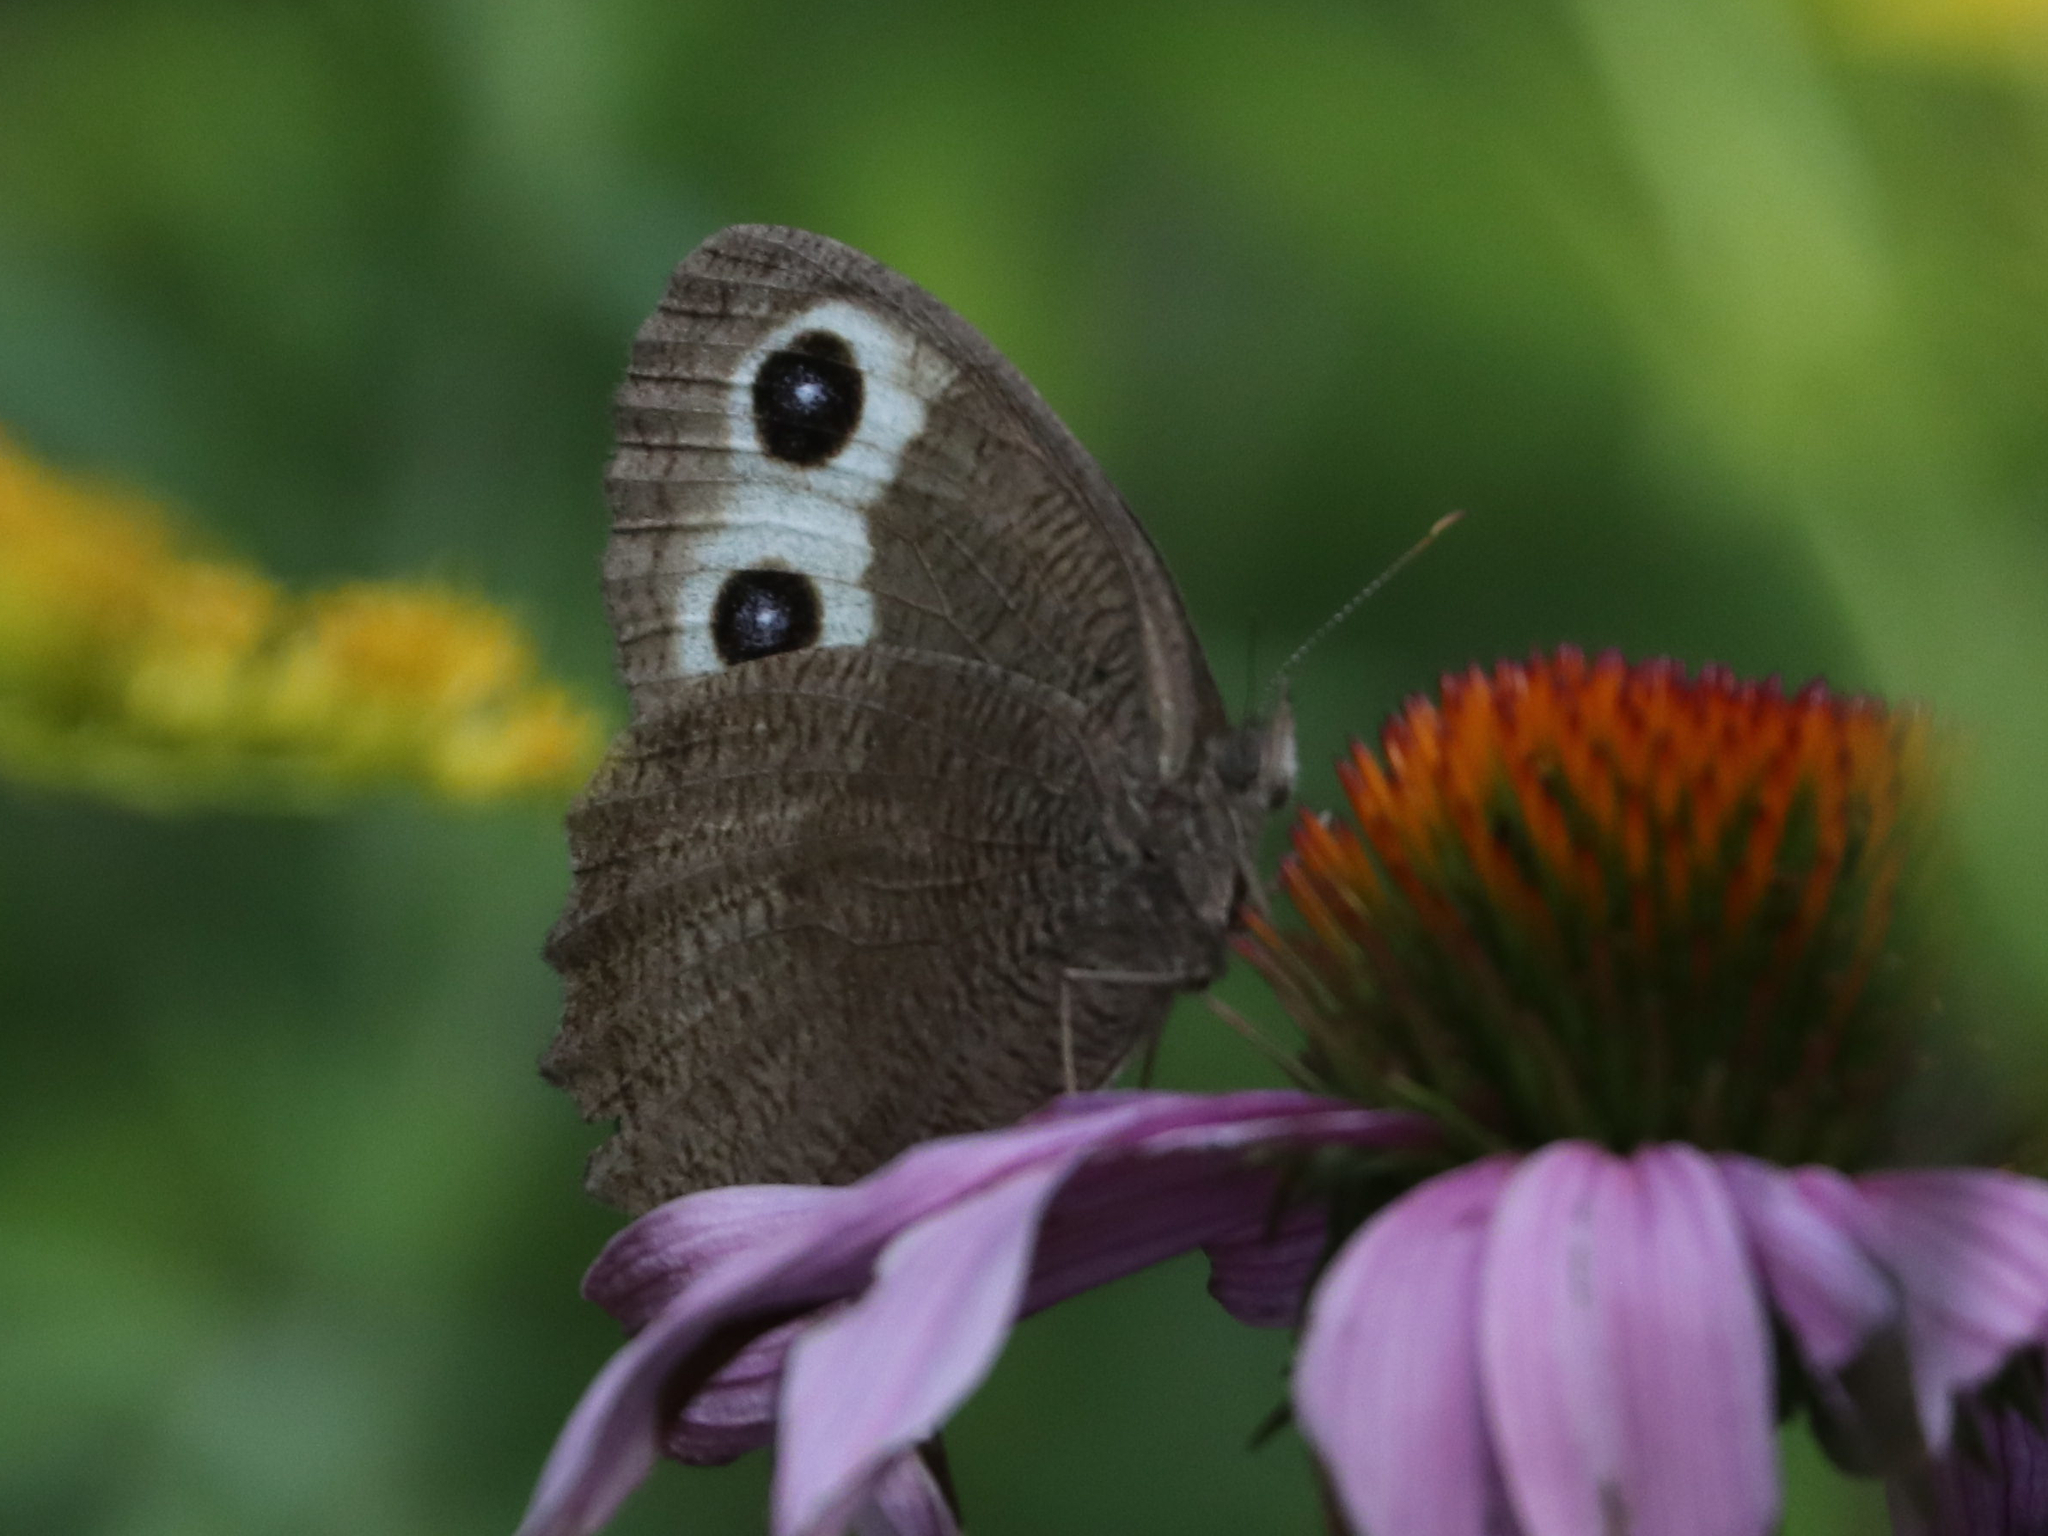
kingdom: Animalia
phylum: Arthropoda
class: Insecta
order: Lepidoptera
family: Nymphalidae
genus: Cercyonis
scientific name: Cercyonis pegala
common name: Common wood-nymph
